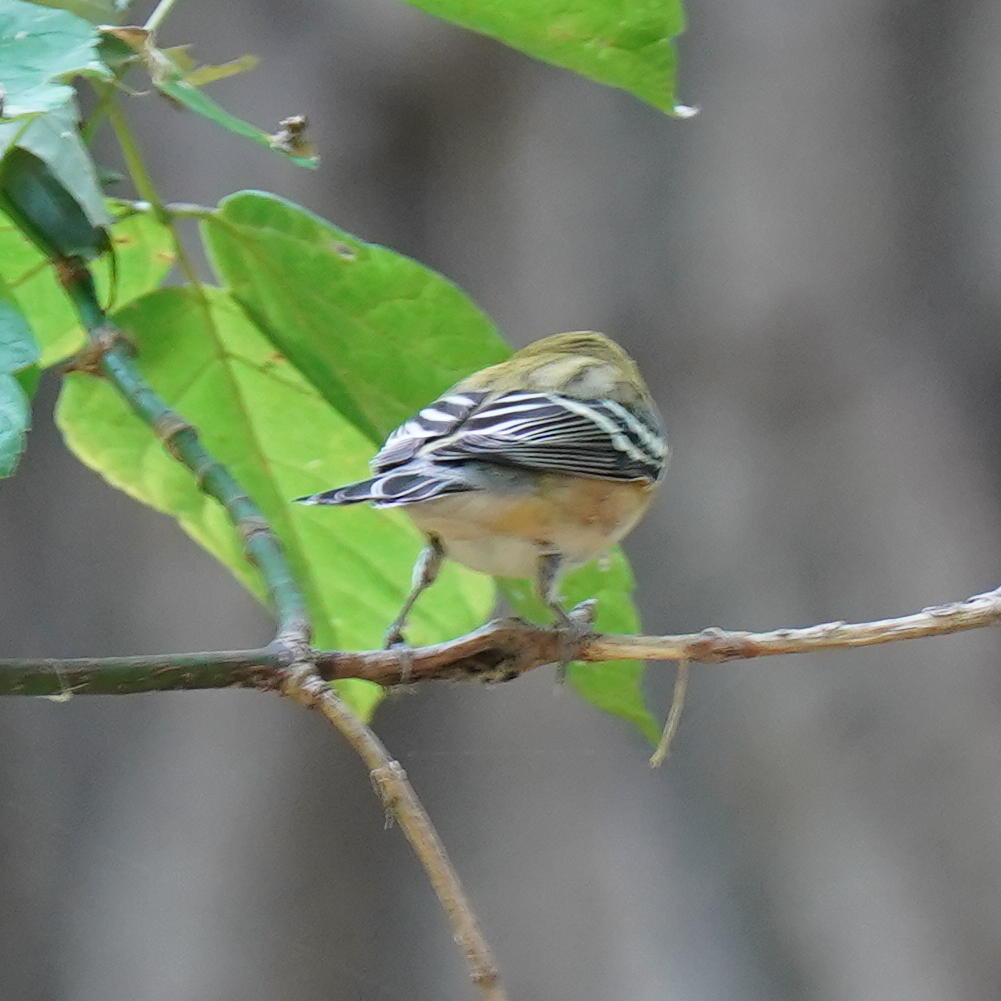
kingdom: Animalia
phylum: Chordata
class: Aves
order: Passeriformes
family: Parulidae
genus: Setophaga
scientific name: Setophaga castanea
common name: Bay-breasted warbler
